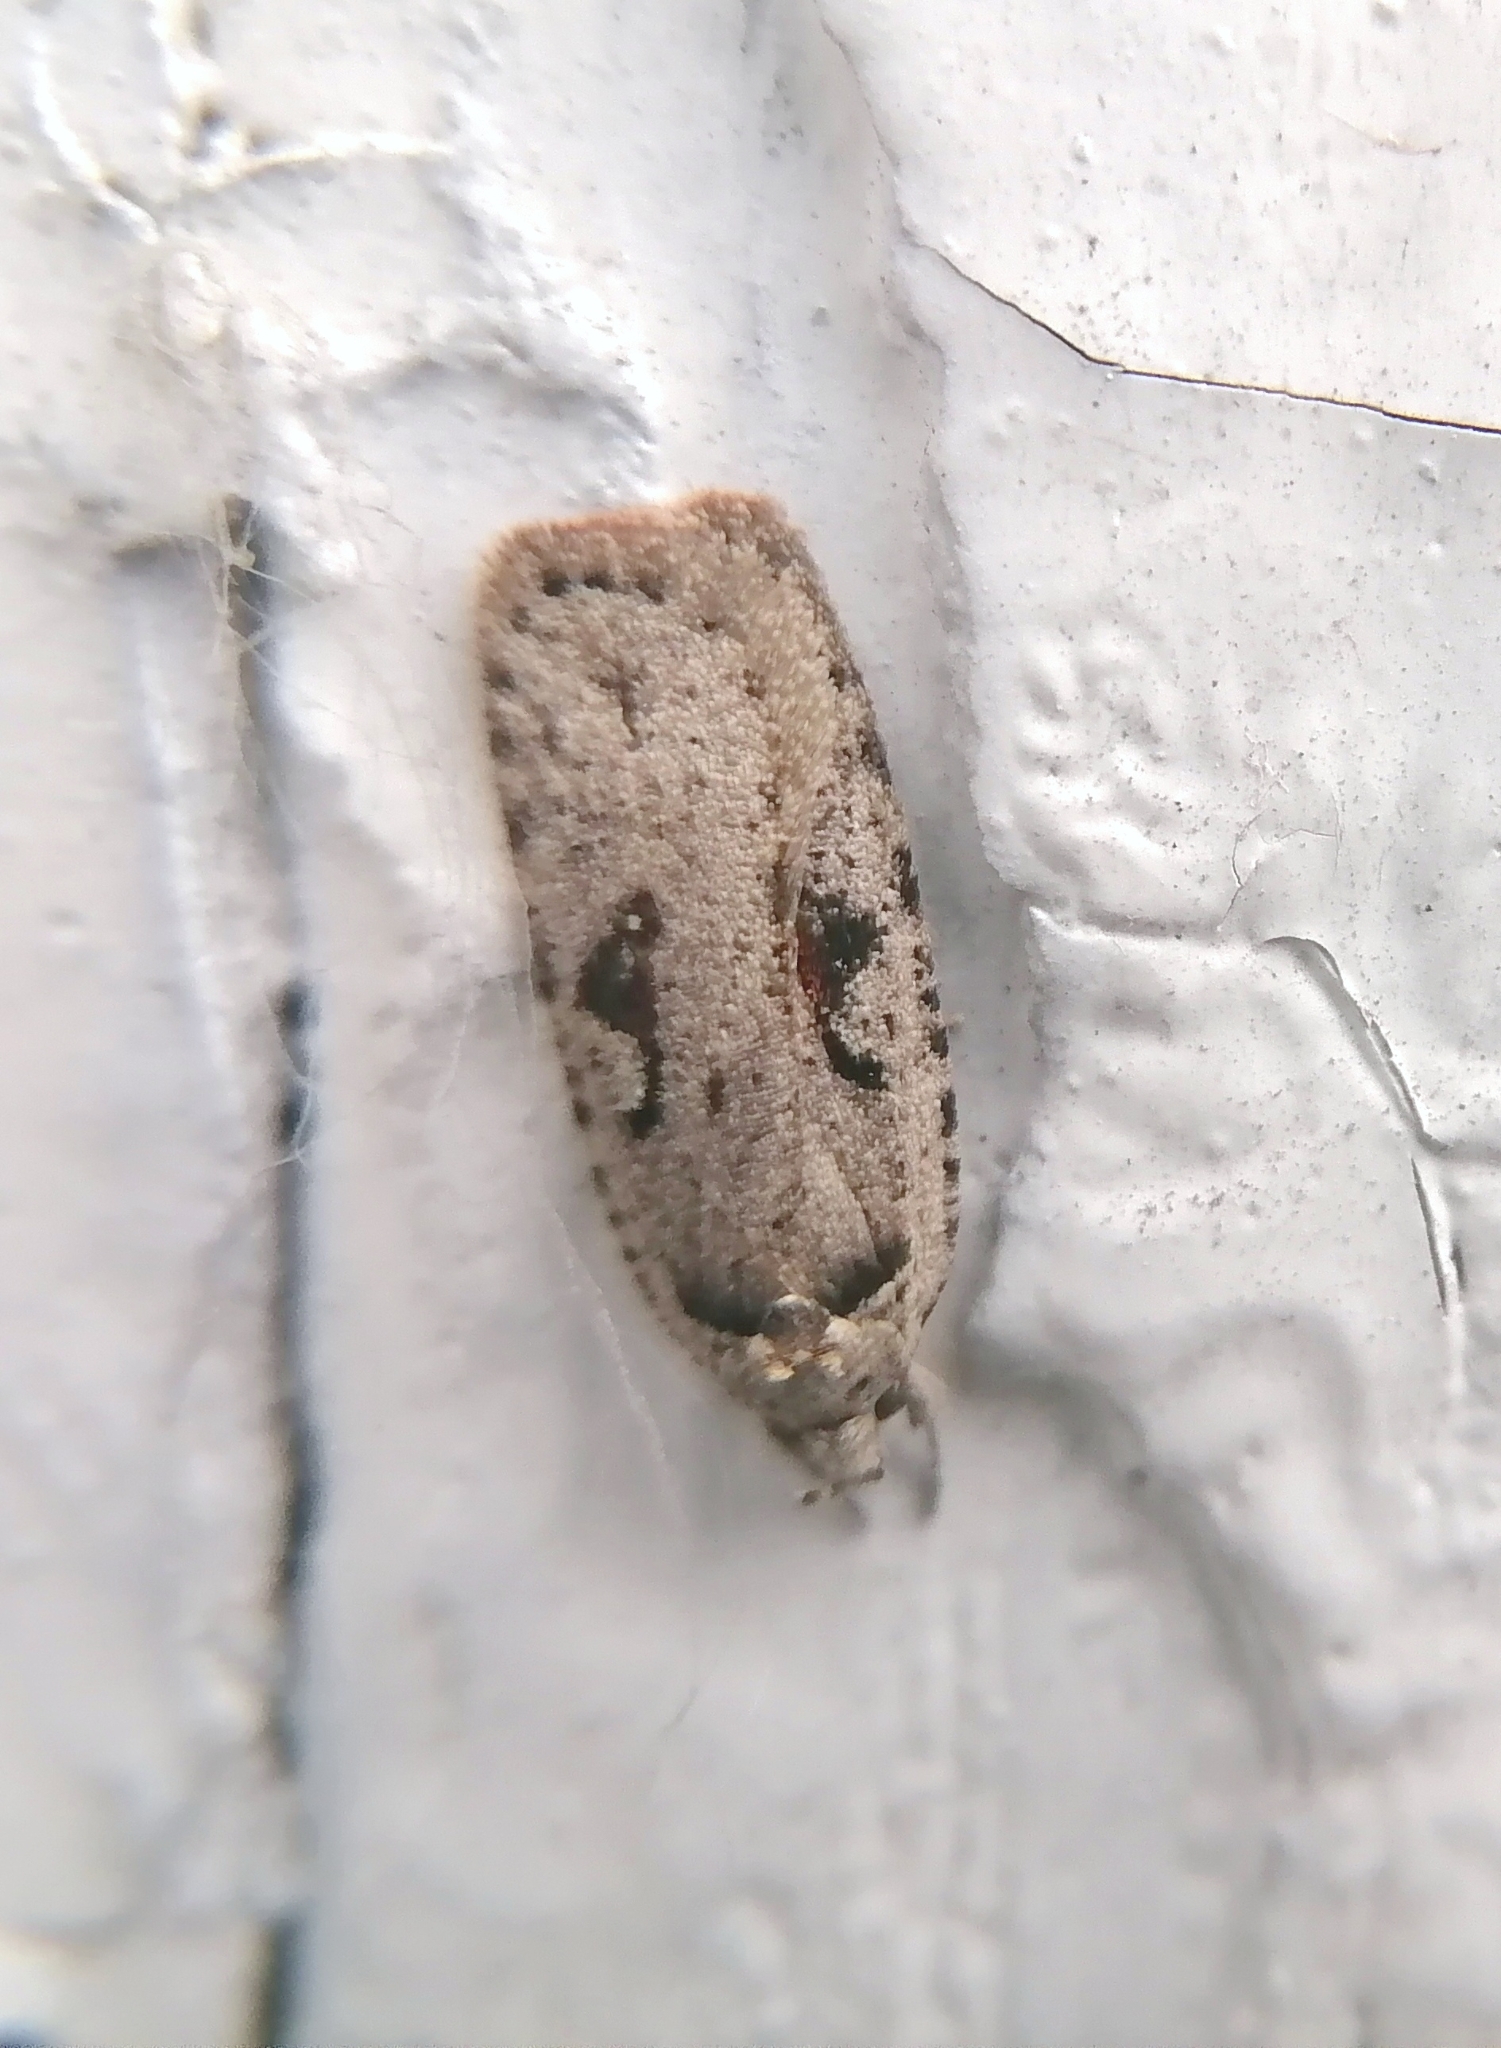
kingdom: Animalia
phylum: Arthropoda
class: Insecta
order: Lepidoptera
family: Depressariidae
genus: Agonopterix
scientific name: Agonopterix ocellana
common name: Red-letter flat-body
